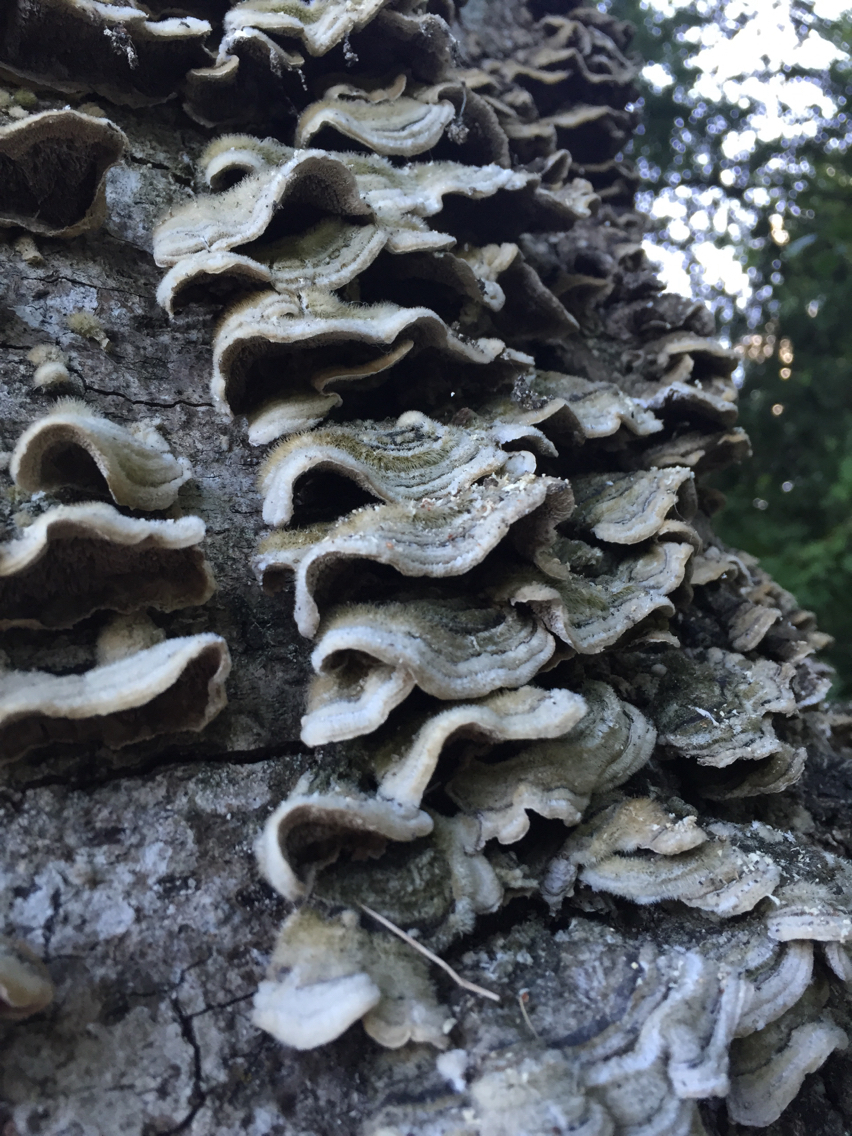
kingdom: Fungi
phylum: Basidiomycota
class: Agaricomycetes
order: Polyporales
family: Polyporaceae
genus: Trametes
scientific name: Trametes versicolor
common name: Turkeytail
